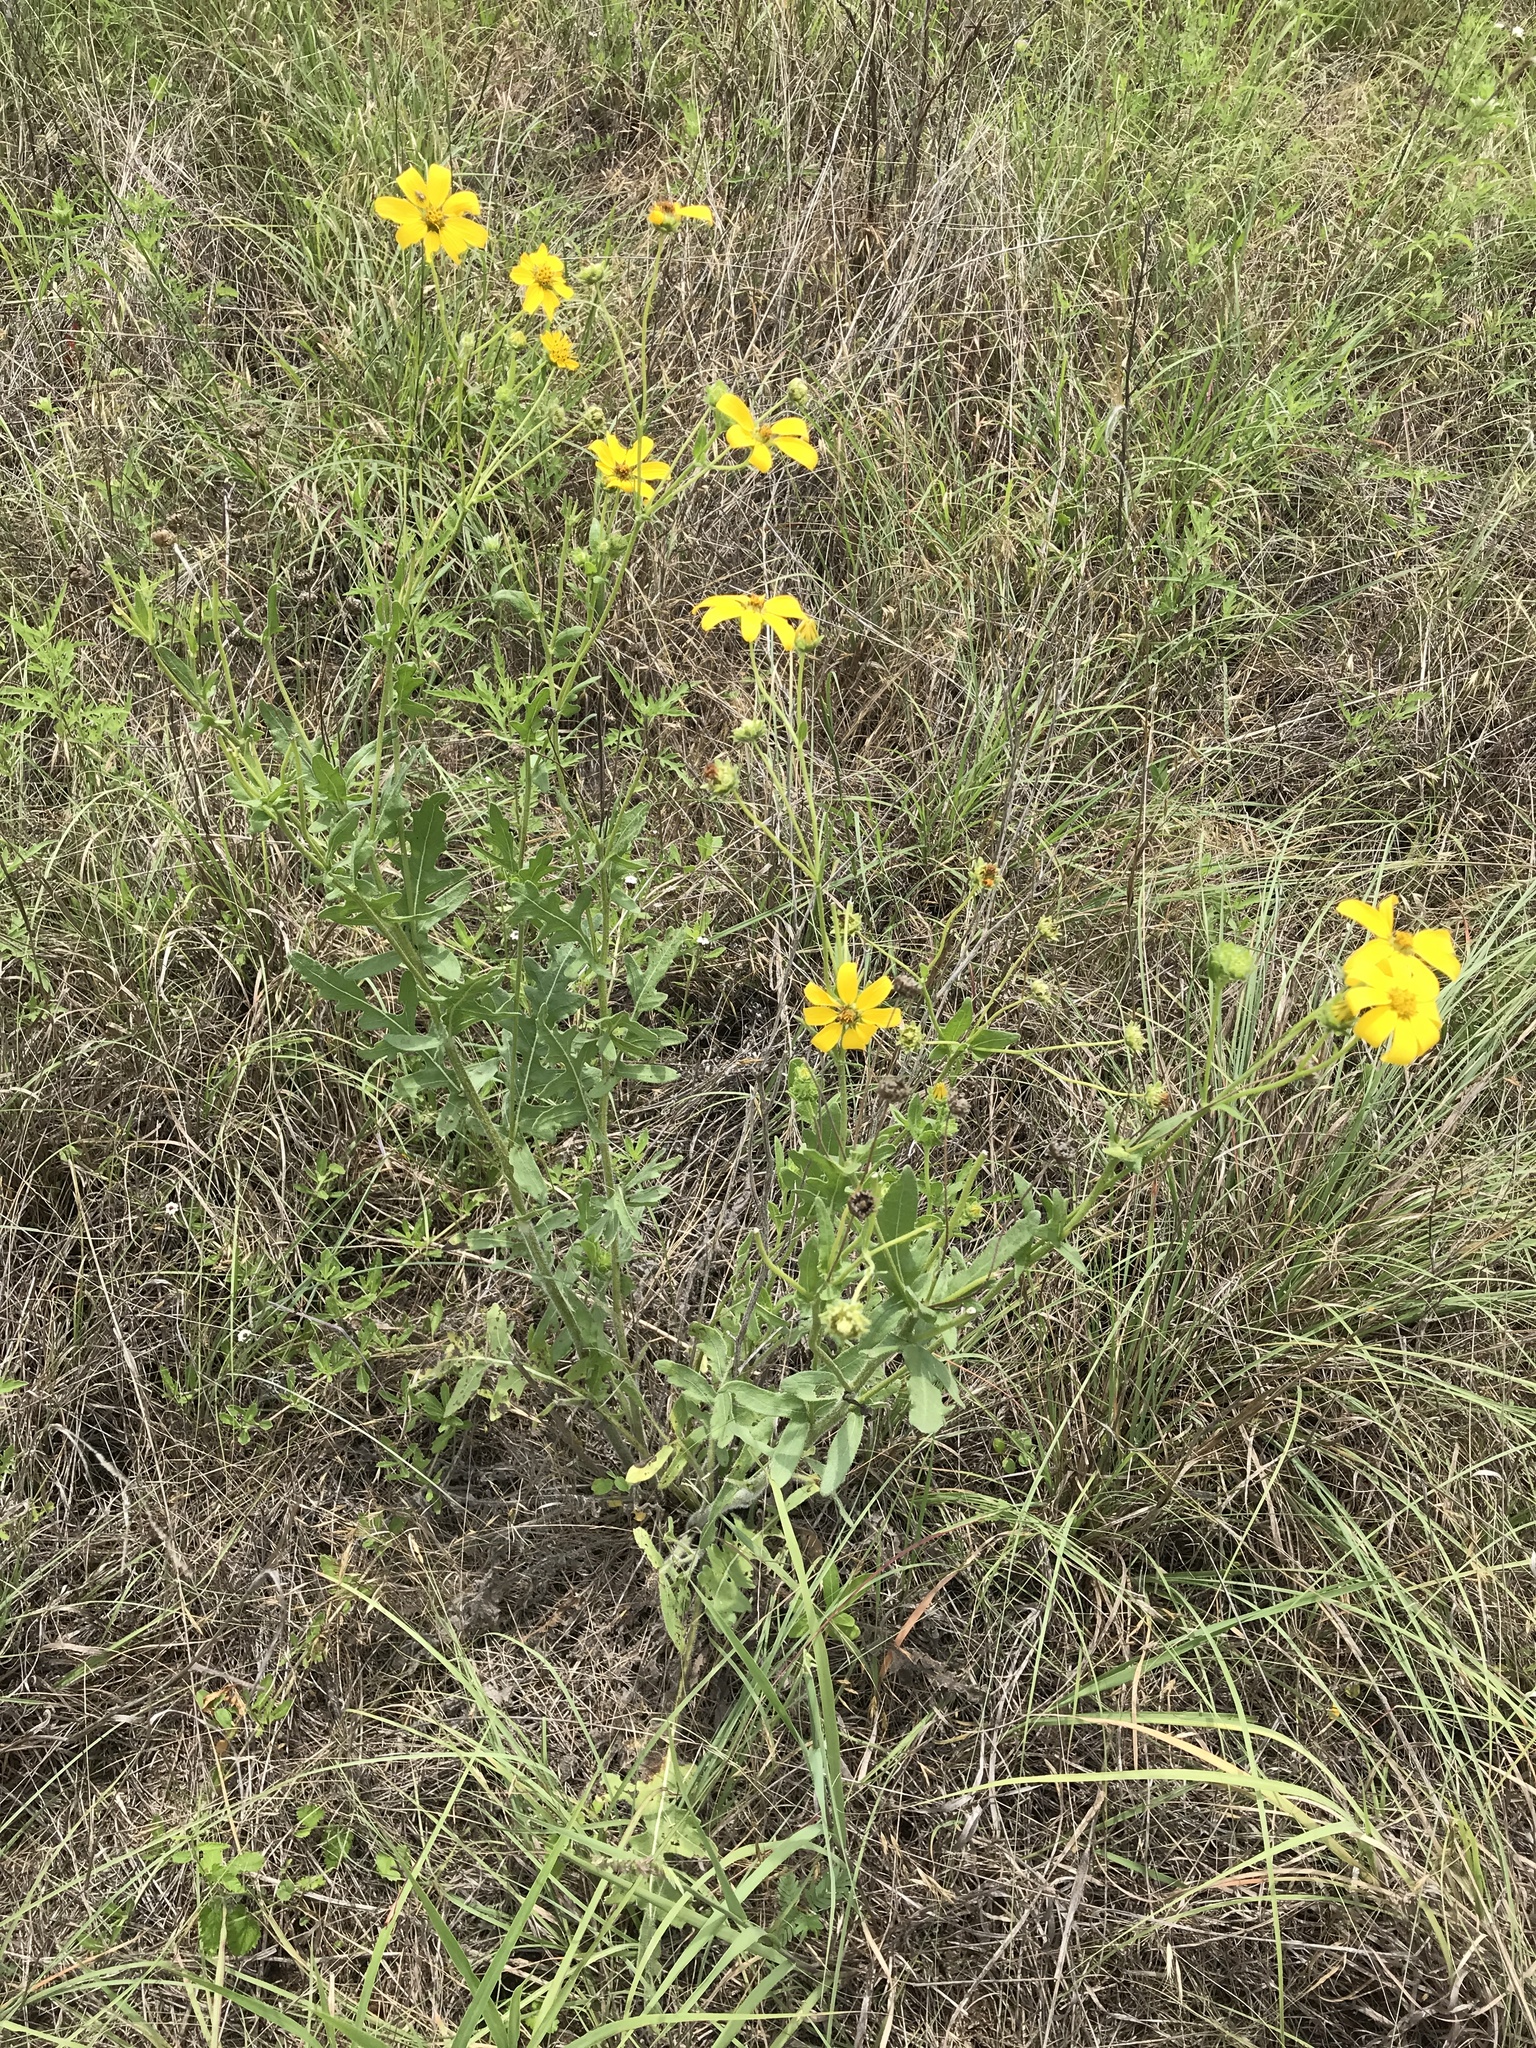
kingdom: Plantae
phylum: Tracheophyta
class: Magnoliopsida
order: Asterales
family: Asteraceae
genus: Engelmannia
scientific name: Engelmannia peristenia
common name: Engelmann's daisy
